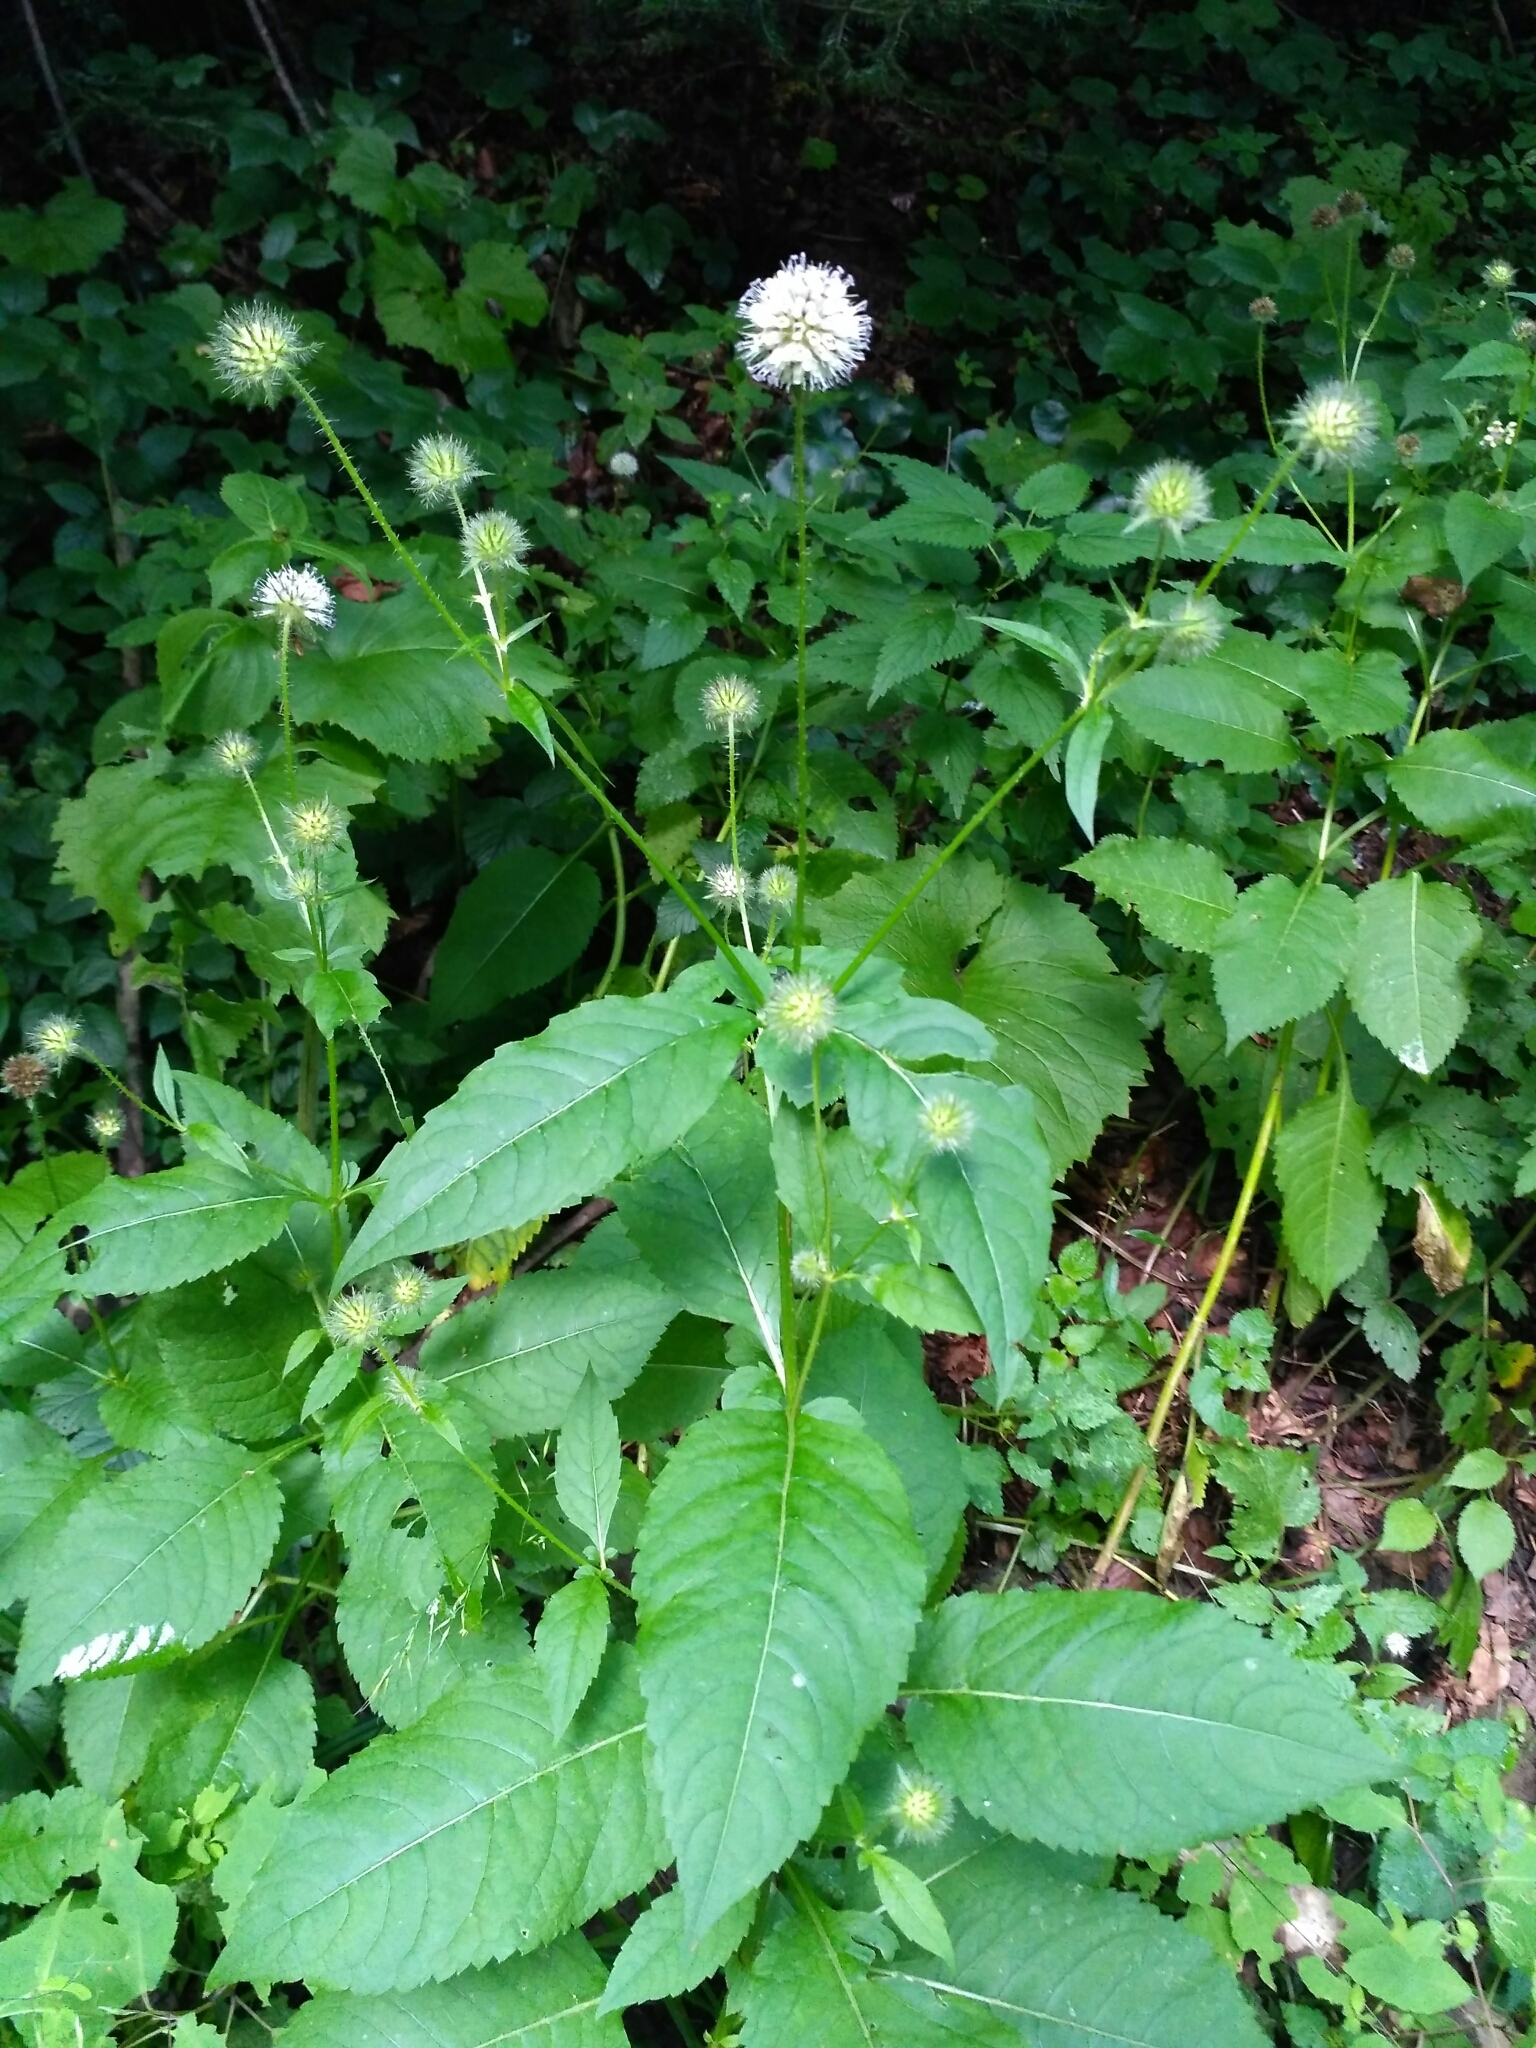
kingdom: Plantae
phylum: Tracheophyta
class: Magnoliopsida
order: Dipsacales
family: Caprifoliaceae
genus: Dipsacus
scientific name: Dipsacus pilosus
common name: Small teasel
